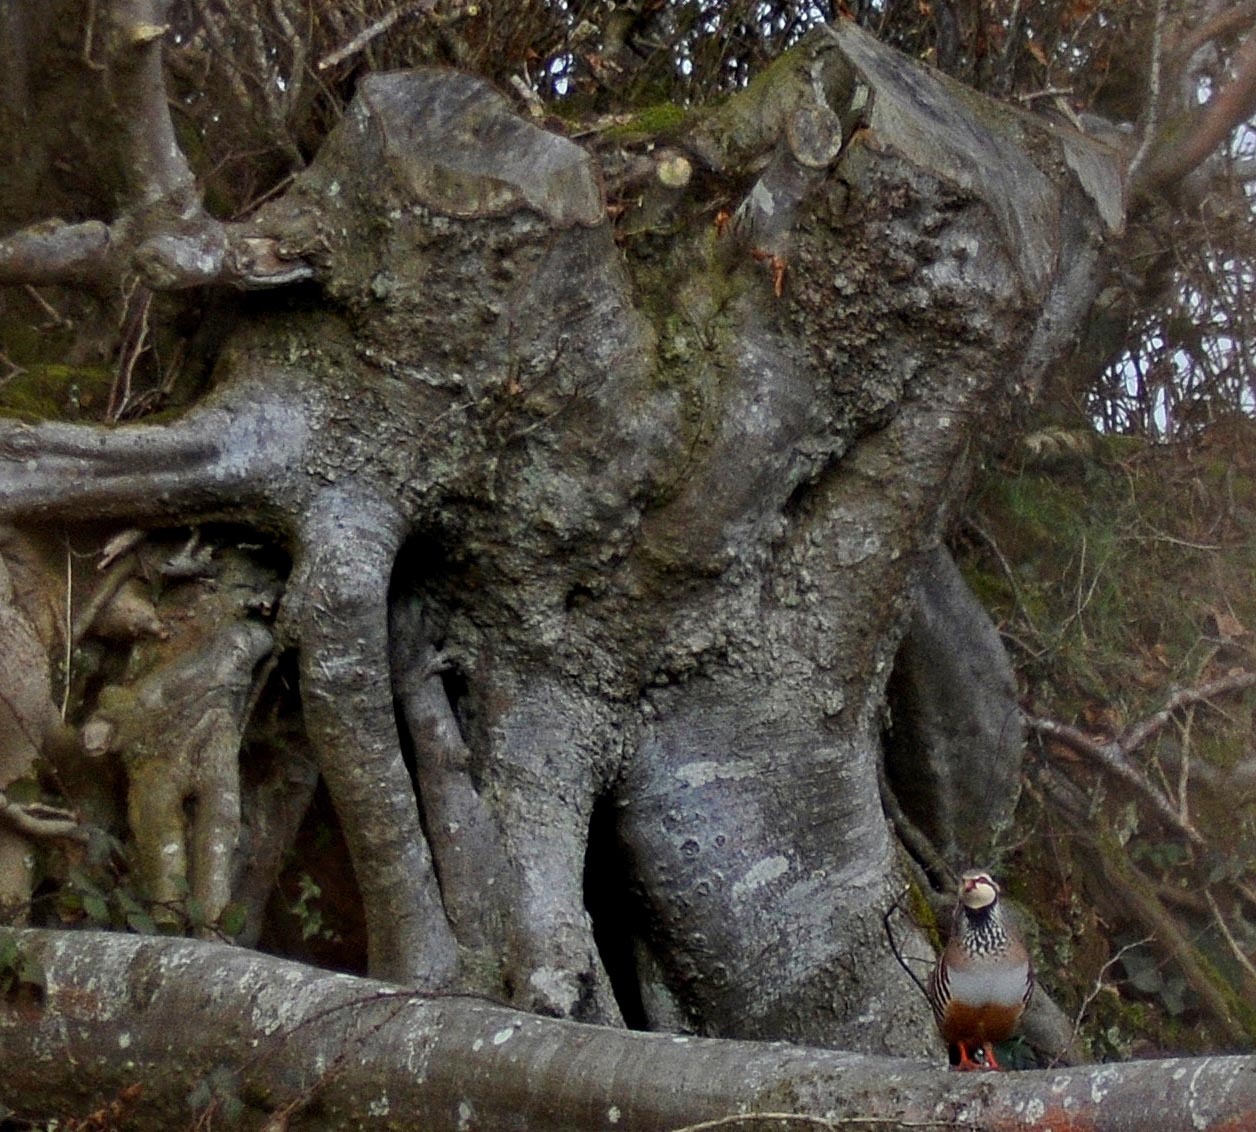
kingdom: Animalia
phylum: Chordata
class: Aves
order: Galliformes
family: Phasianidae
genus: Alectoris
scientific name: Alectoris rufa
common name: Red-legged partridge
